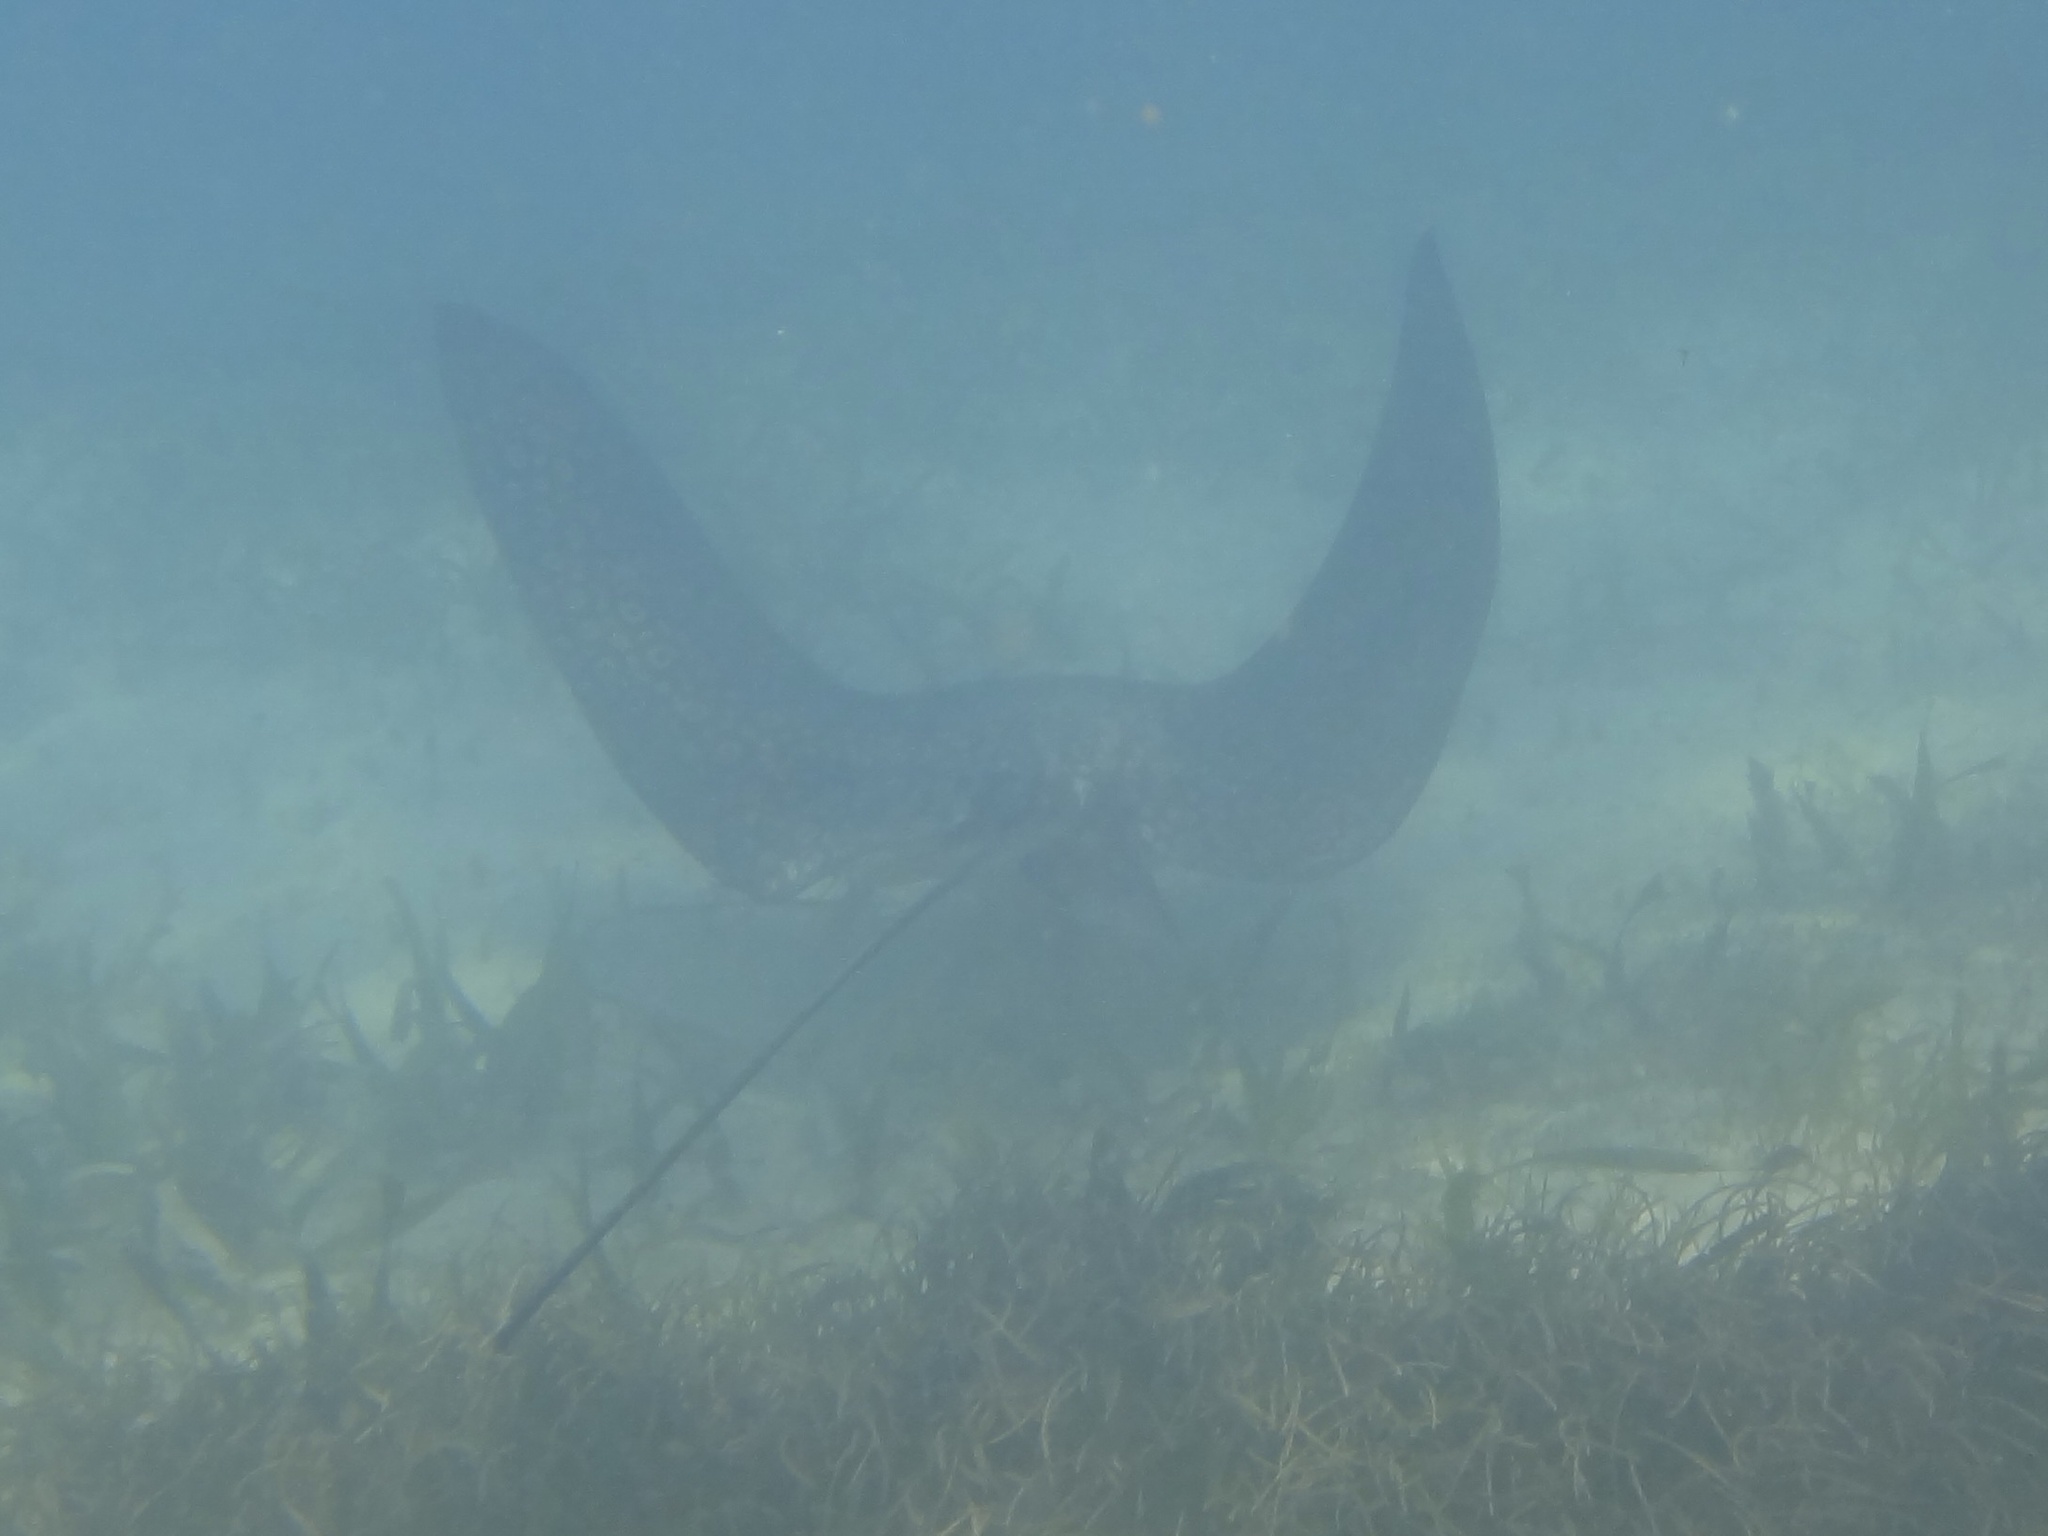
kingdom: Animalia
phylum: Chordata
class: Elasmobranchii
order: Myliobatiformes
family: Myliobatidae
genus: Aetobatus
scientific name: Aetobatus narinari
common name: Spotted eagle ray
